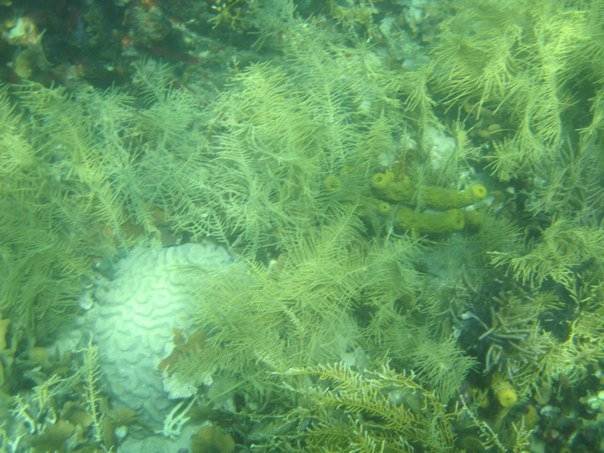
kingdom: Animalia
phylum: Porifera
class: Demospongiae
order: Verongiida
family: Aplysinidae
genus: Verongula
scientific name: Verongula rigida
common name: Pitted sponge
